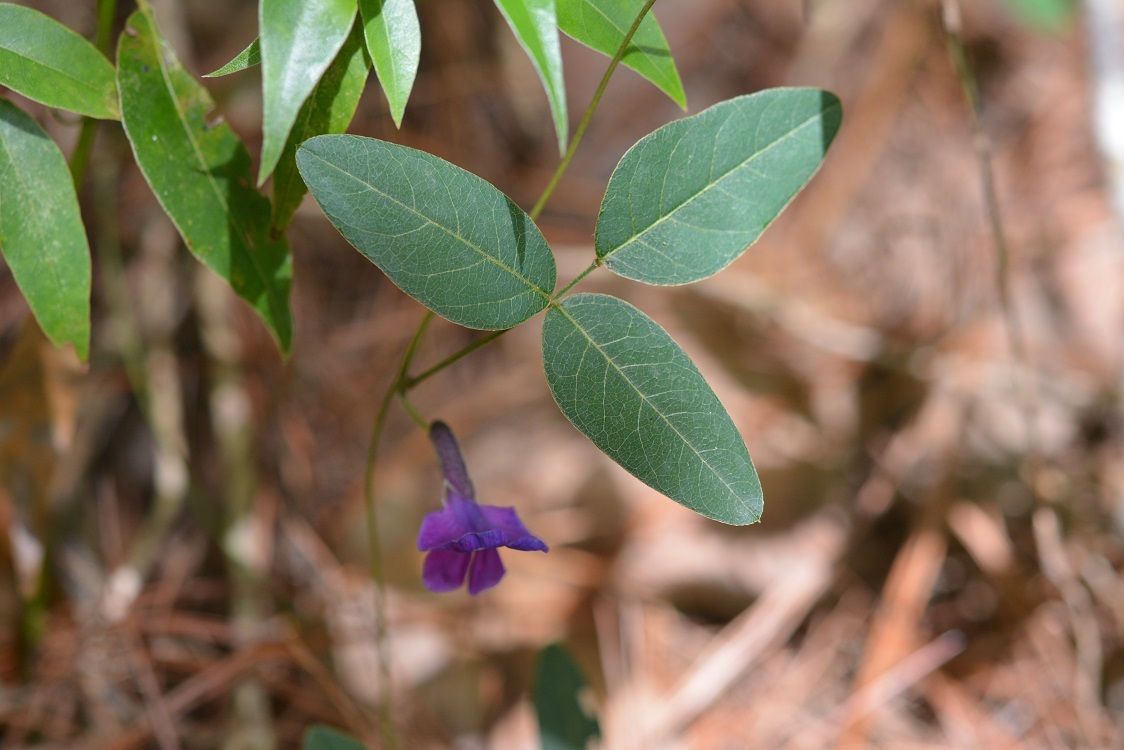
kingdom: Plantae
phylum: Tracheophyta
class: Magnoliopsida
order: Fabales
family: Fabaceae
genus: Cologania
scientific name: Cologania broussonetii
